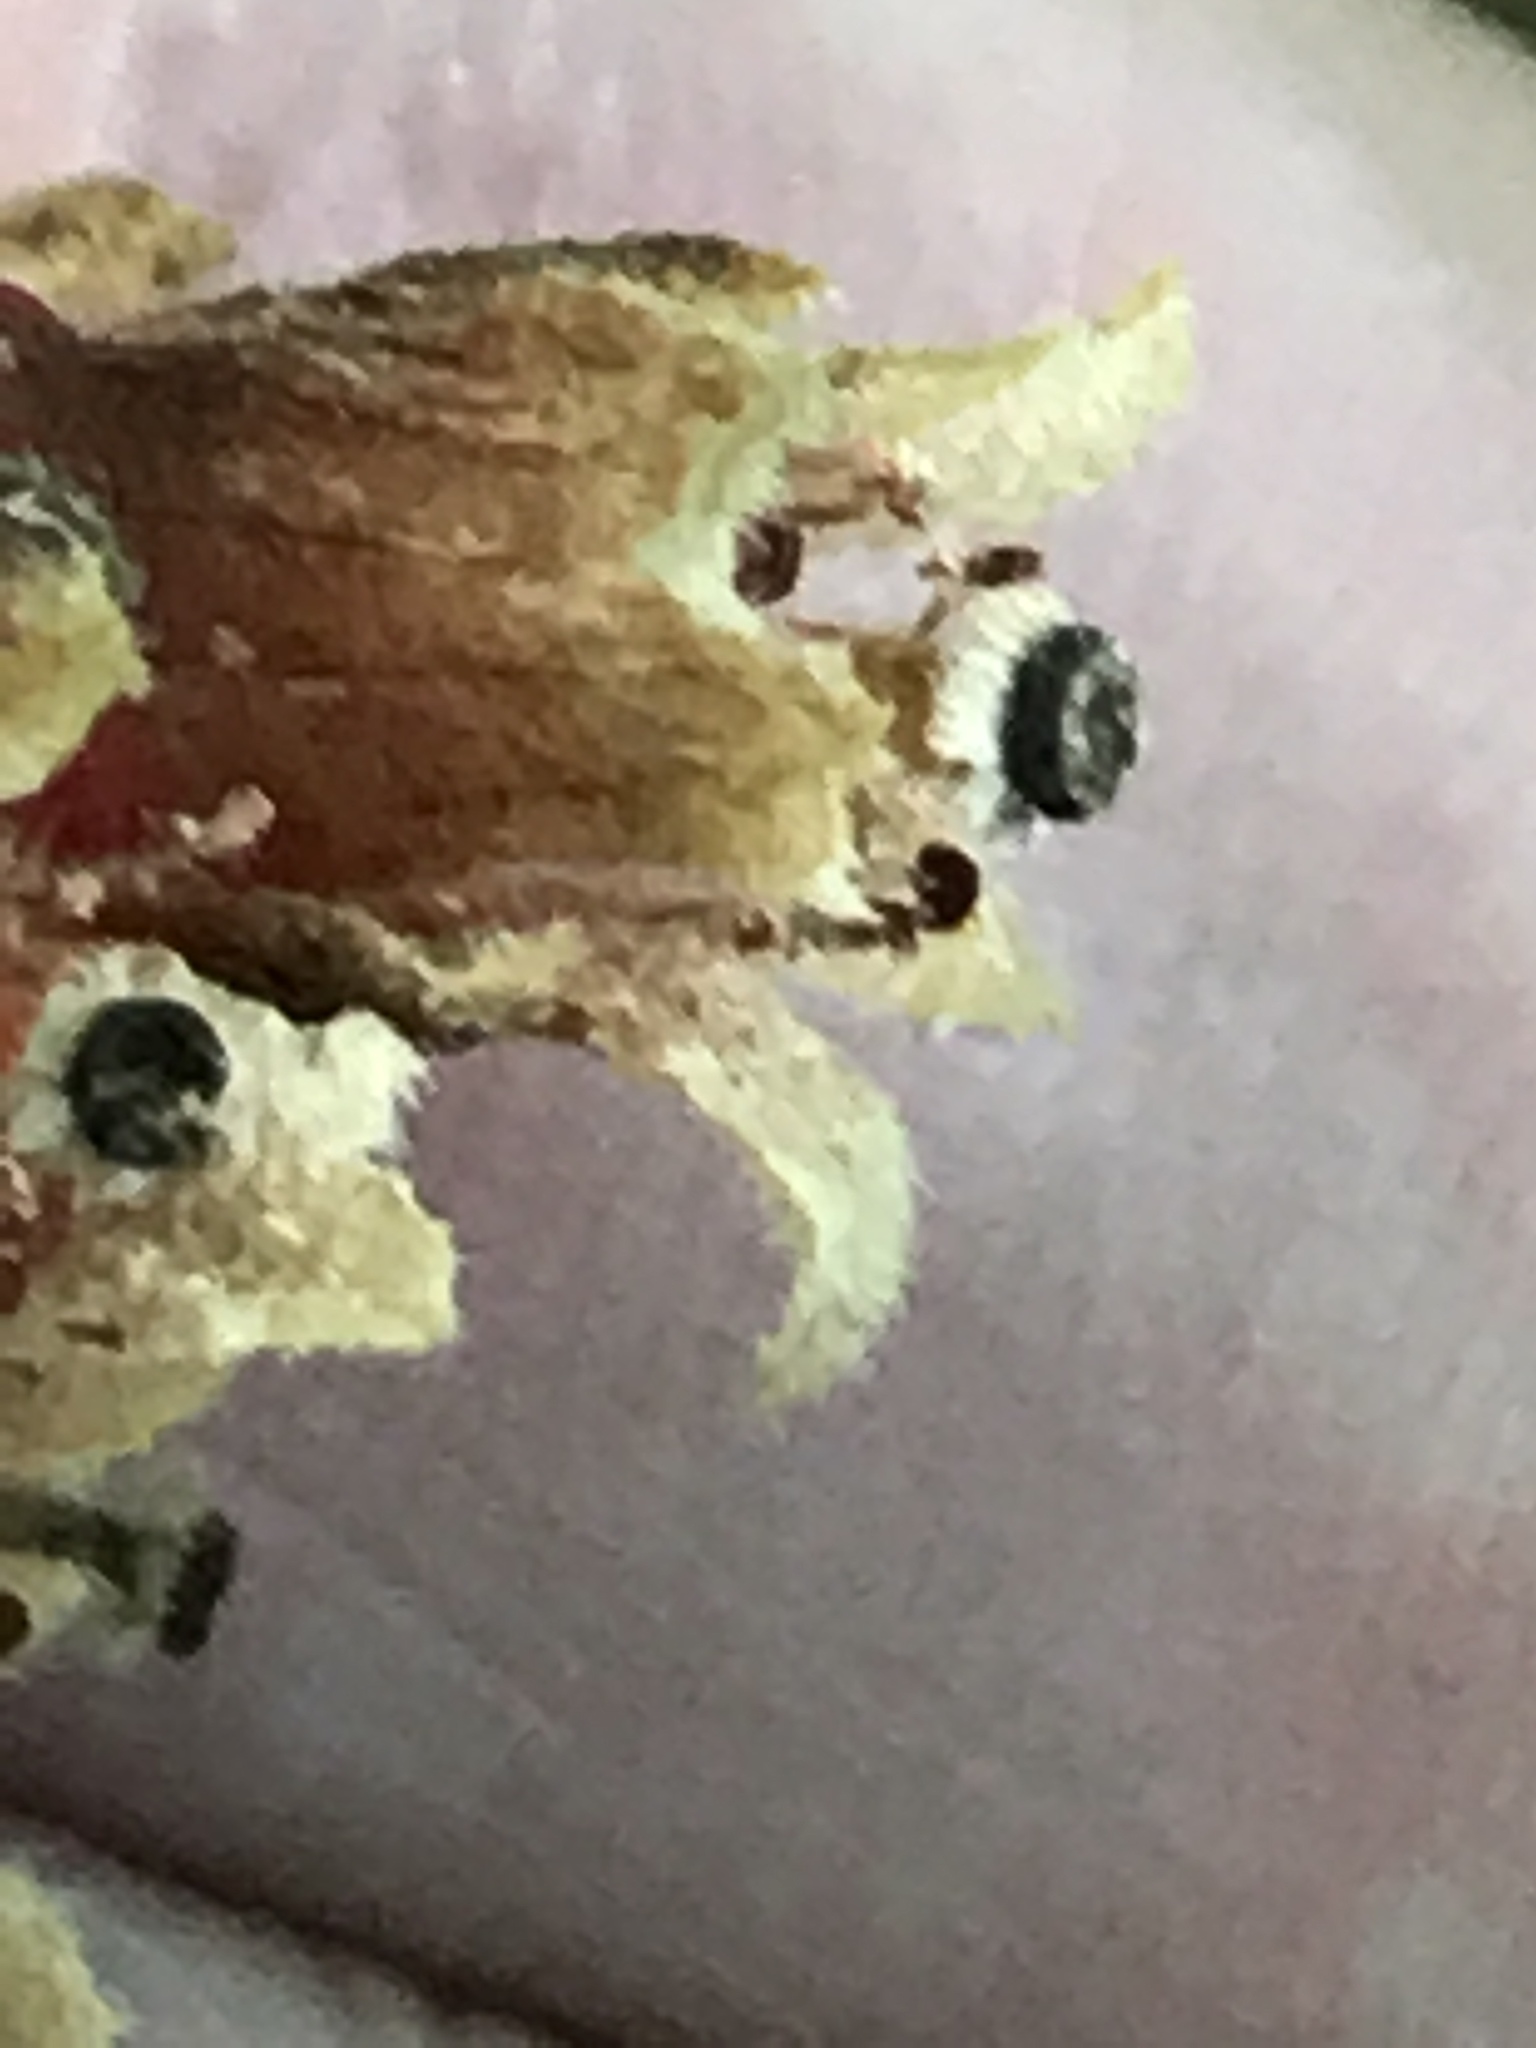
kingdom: Plantae
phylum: Tracheophyta
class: Magnoliopsida
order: Ericales
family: Ericaceae
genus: Hypopitys
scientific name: Hypopitys monotropa
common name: Yellow bird's-nest
